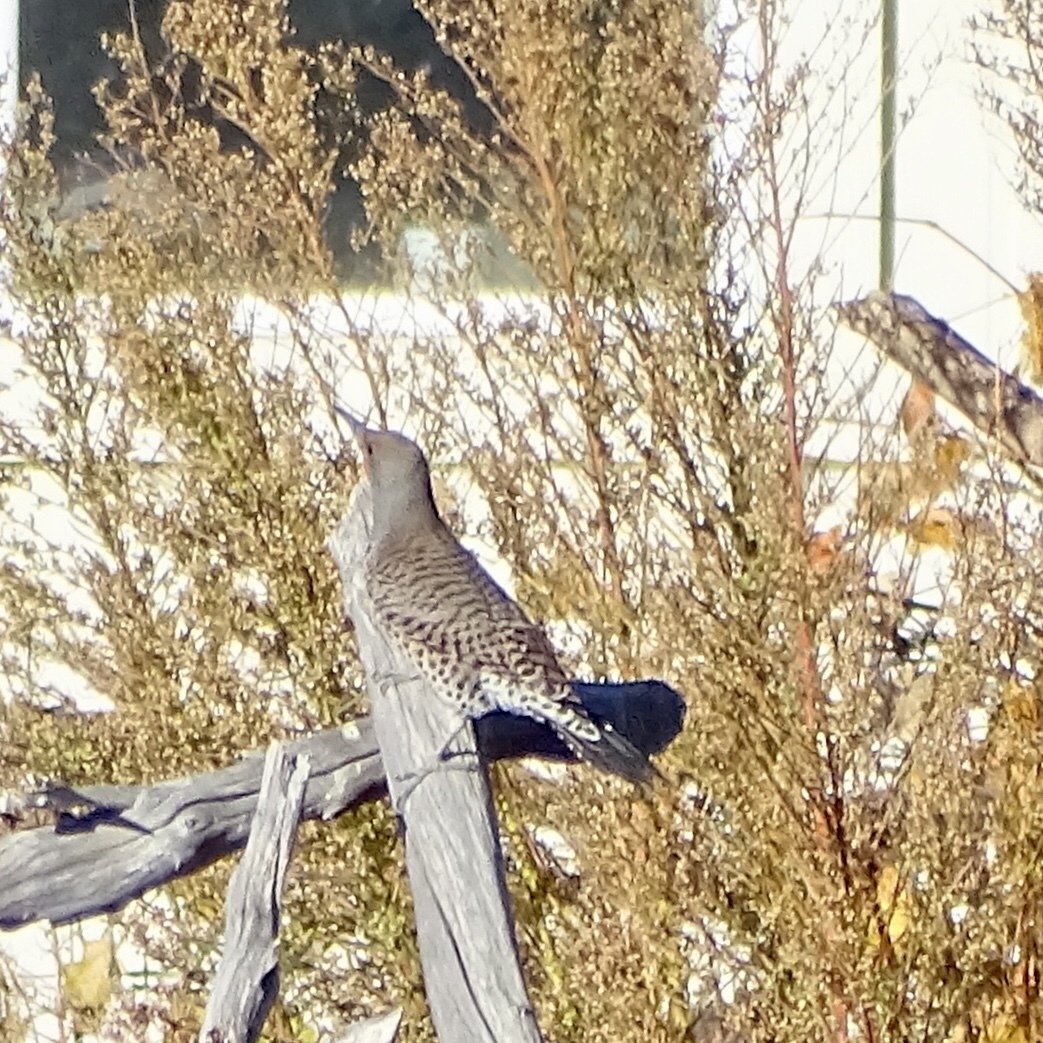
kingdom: Animalia
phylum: Chordata
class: Aves
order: Piciformes
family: Picidae
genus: Colaptes
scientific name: Colaptes auratus
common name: Northern flicker
